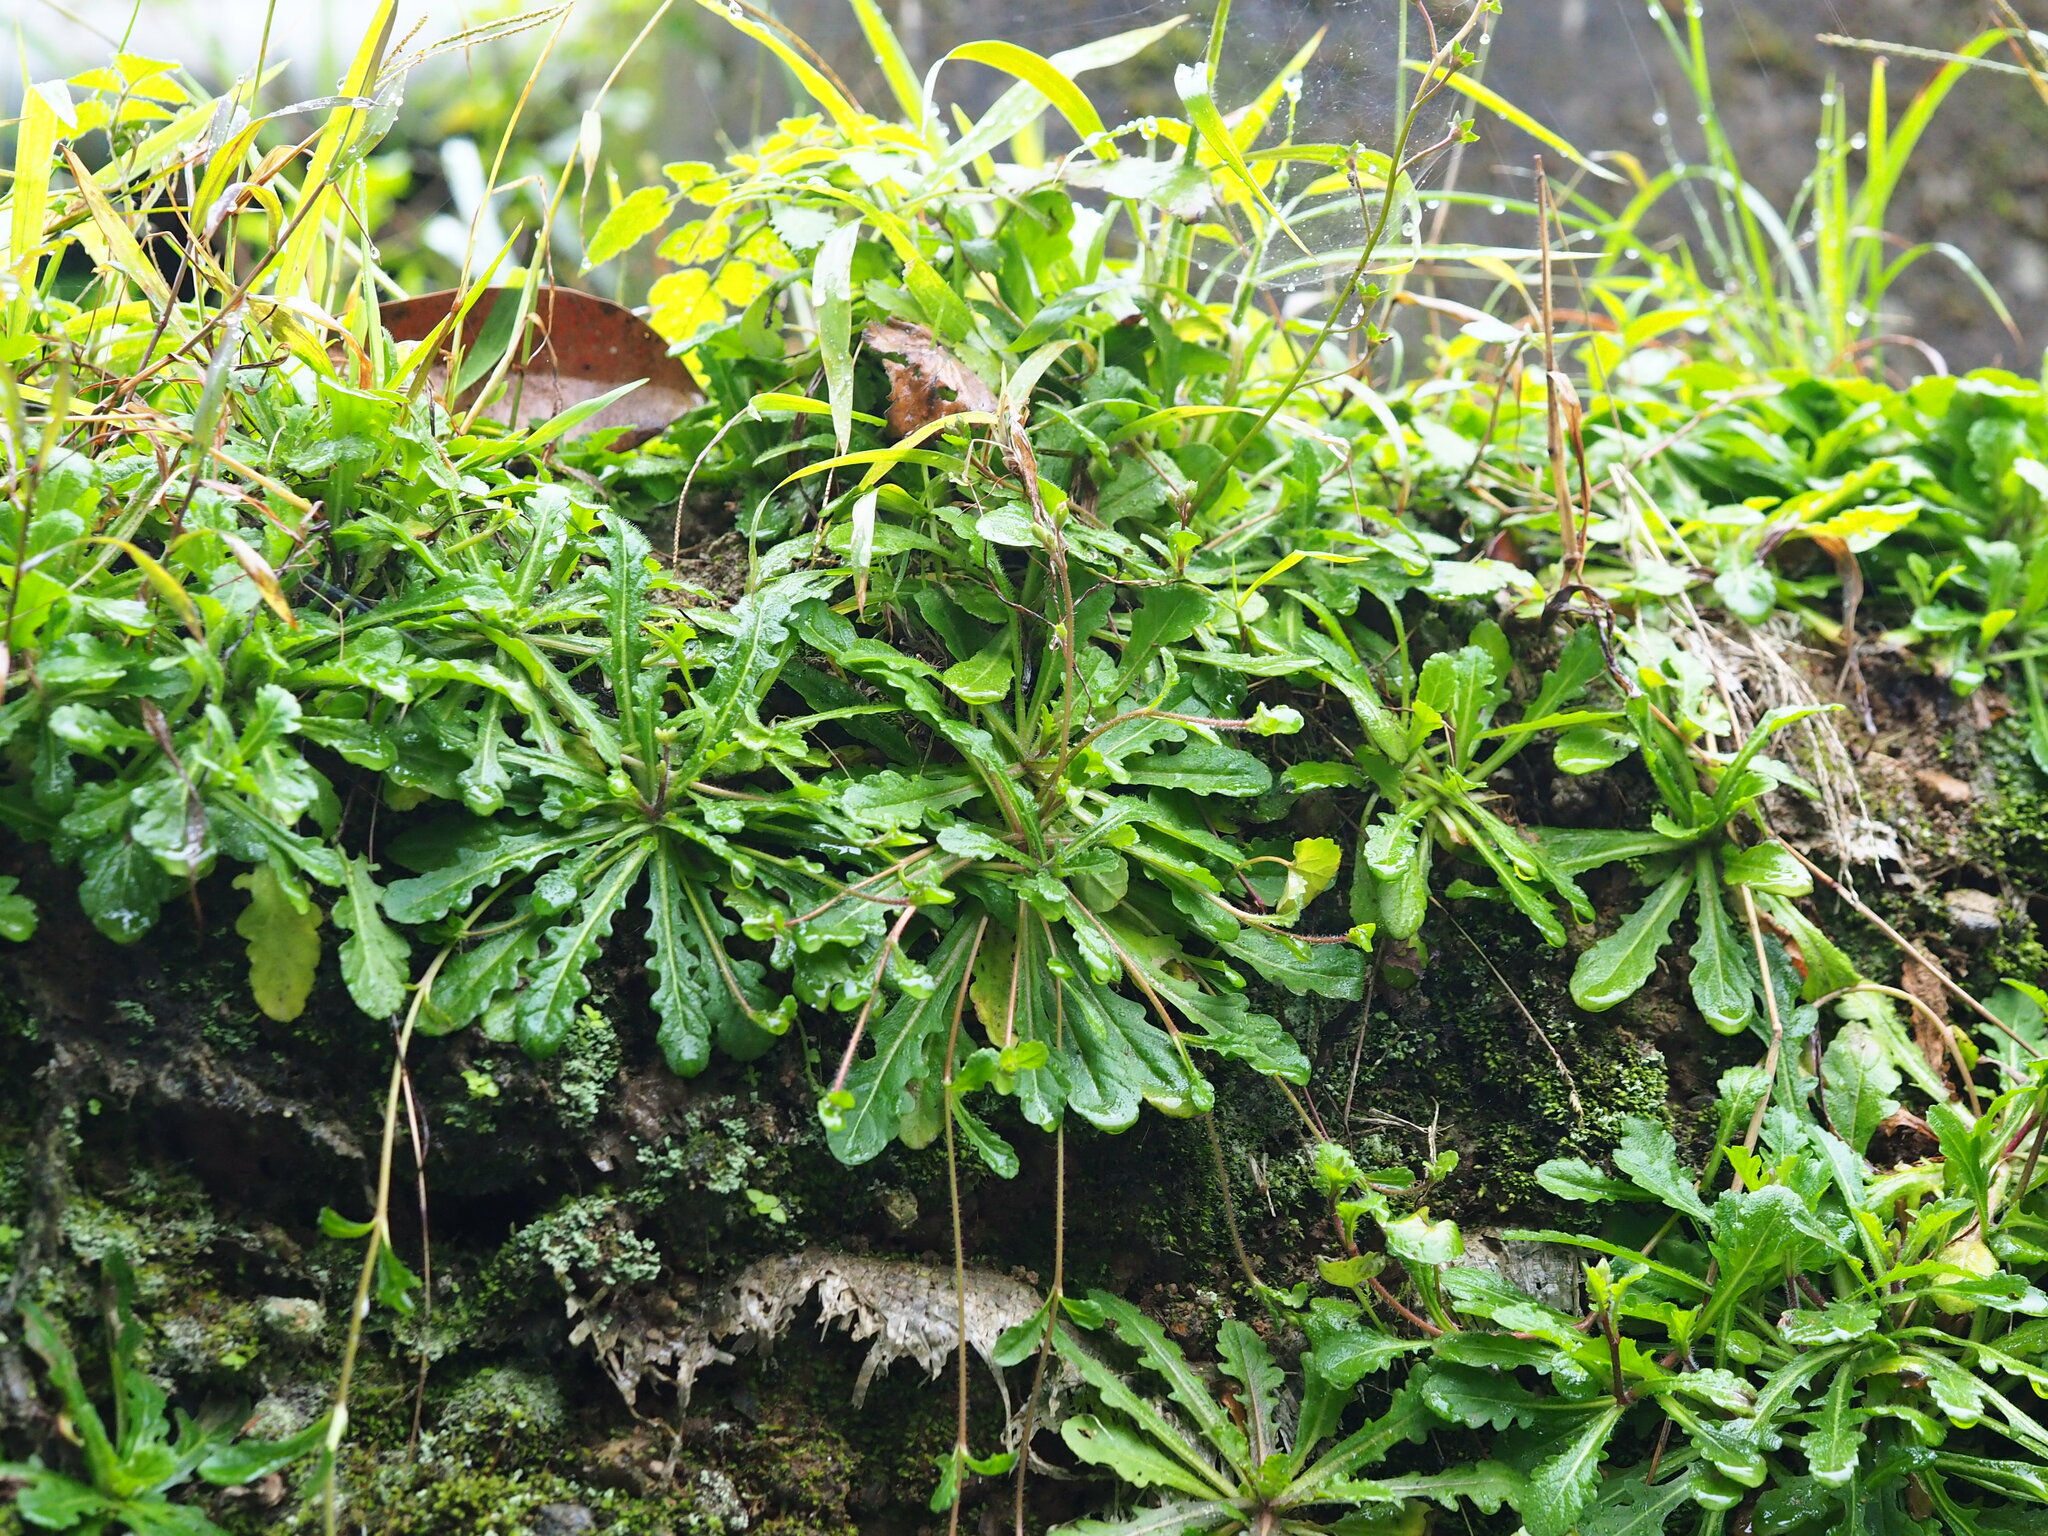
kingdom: Plantae
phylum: Tracheophyta
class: Magnoliopsida
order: Lamiales
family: Mazaceae
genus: Mazus
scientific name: Mazus fauriei
